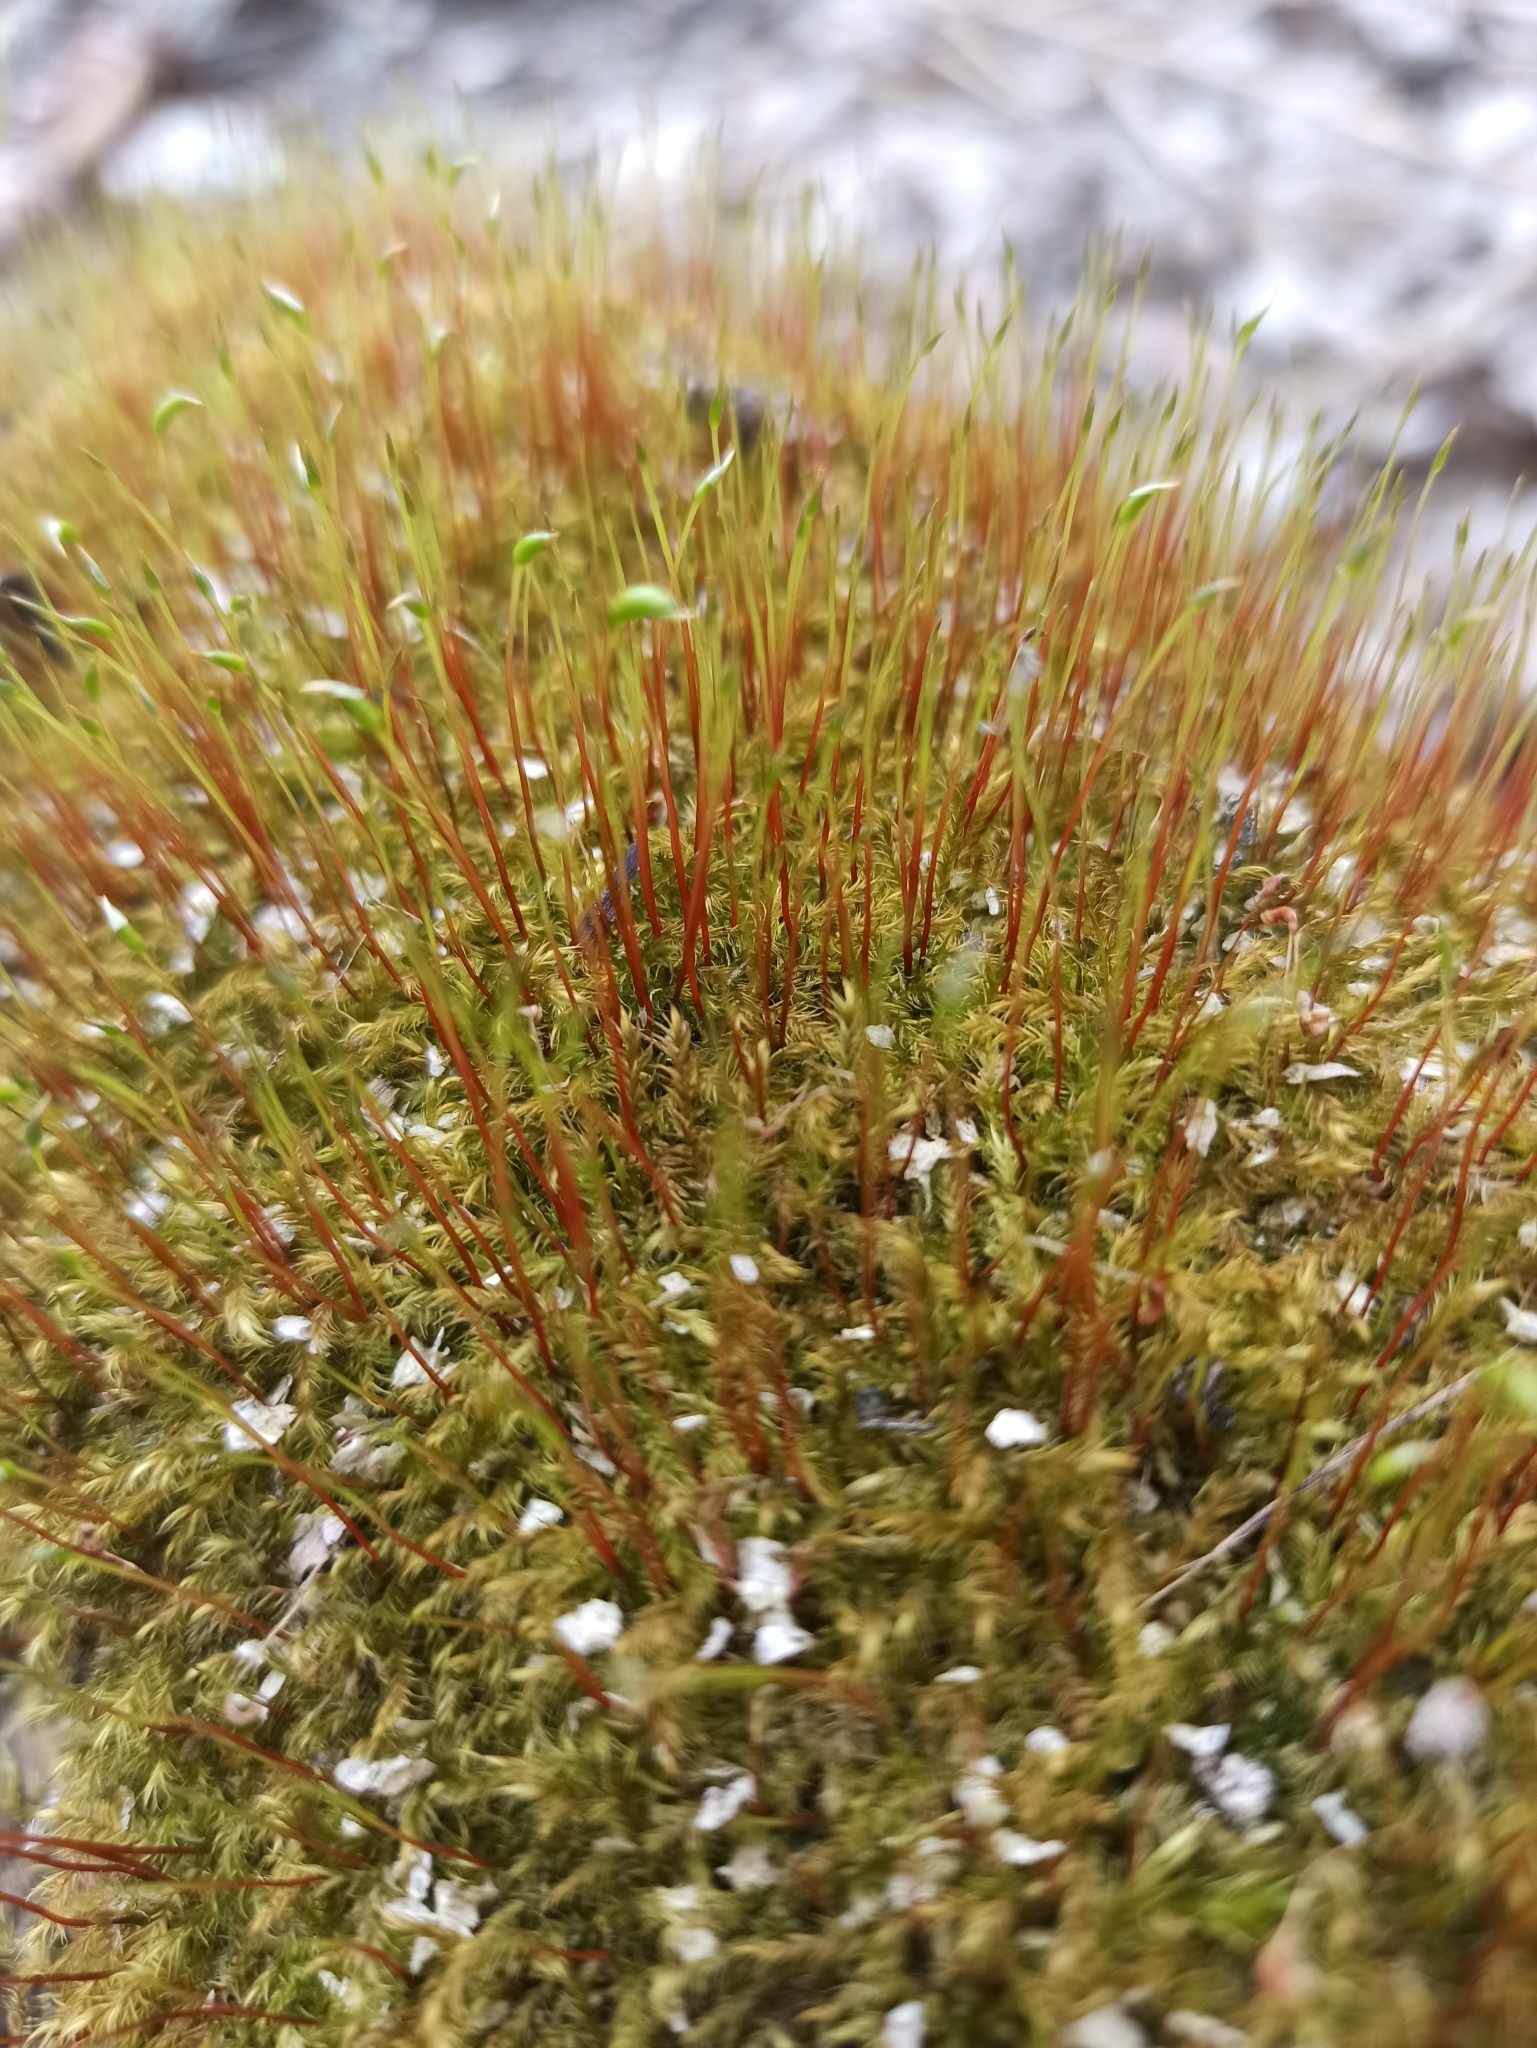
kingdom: Plantae
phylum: Bryophyta
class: Bryopsida
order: Hypnales
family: Amblystegiaceae
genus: Amblystegium
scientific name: Amblystegium serpens
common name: Jurkatzka's feather moss
